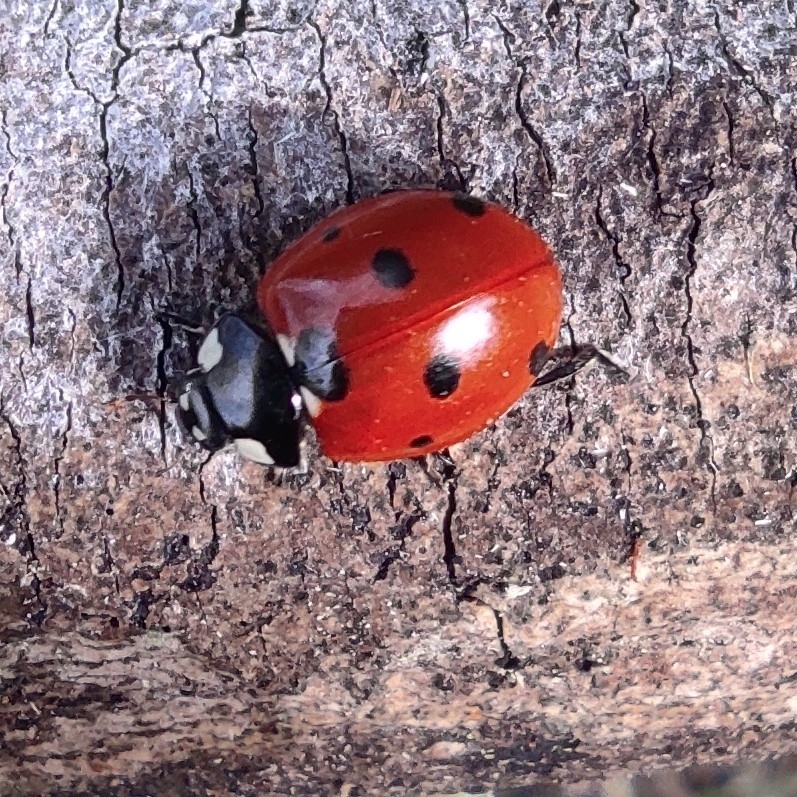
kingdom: Animalia
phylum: Arthropoda
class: Insecta
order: Coleoptera
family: Coccinellidae
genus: Coccinella
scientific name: Coccinella septempunctata
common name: Sevenspotted lady beetle
